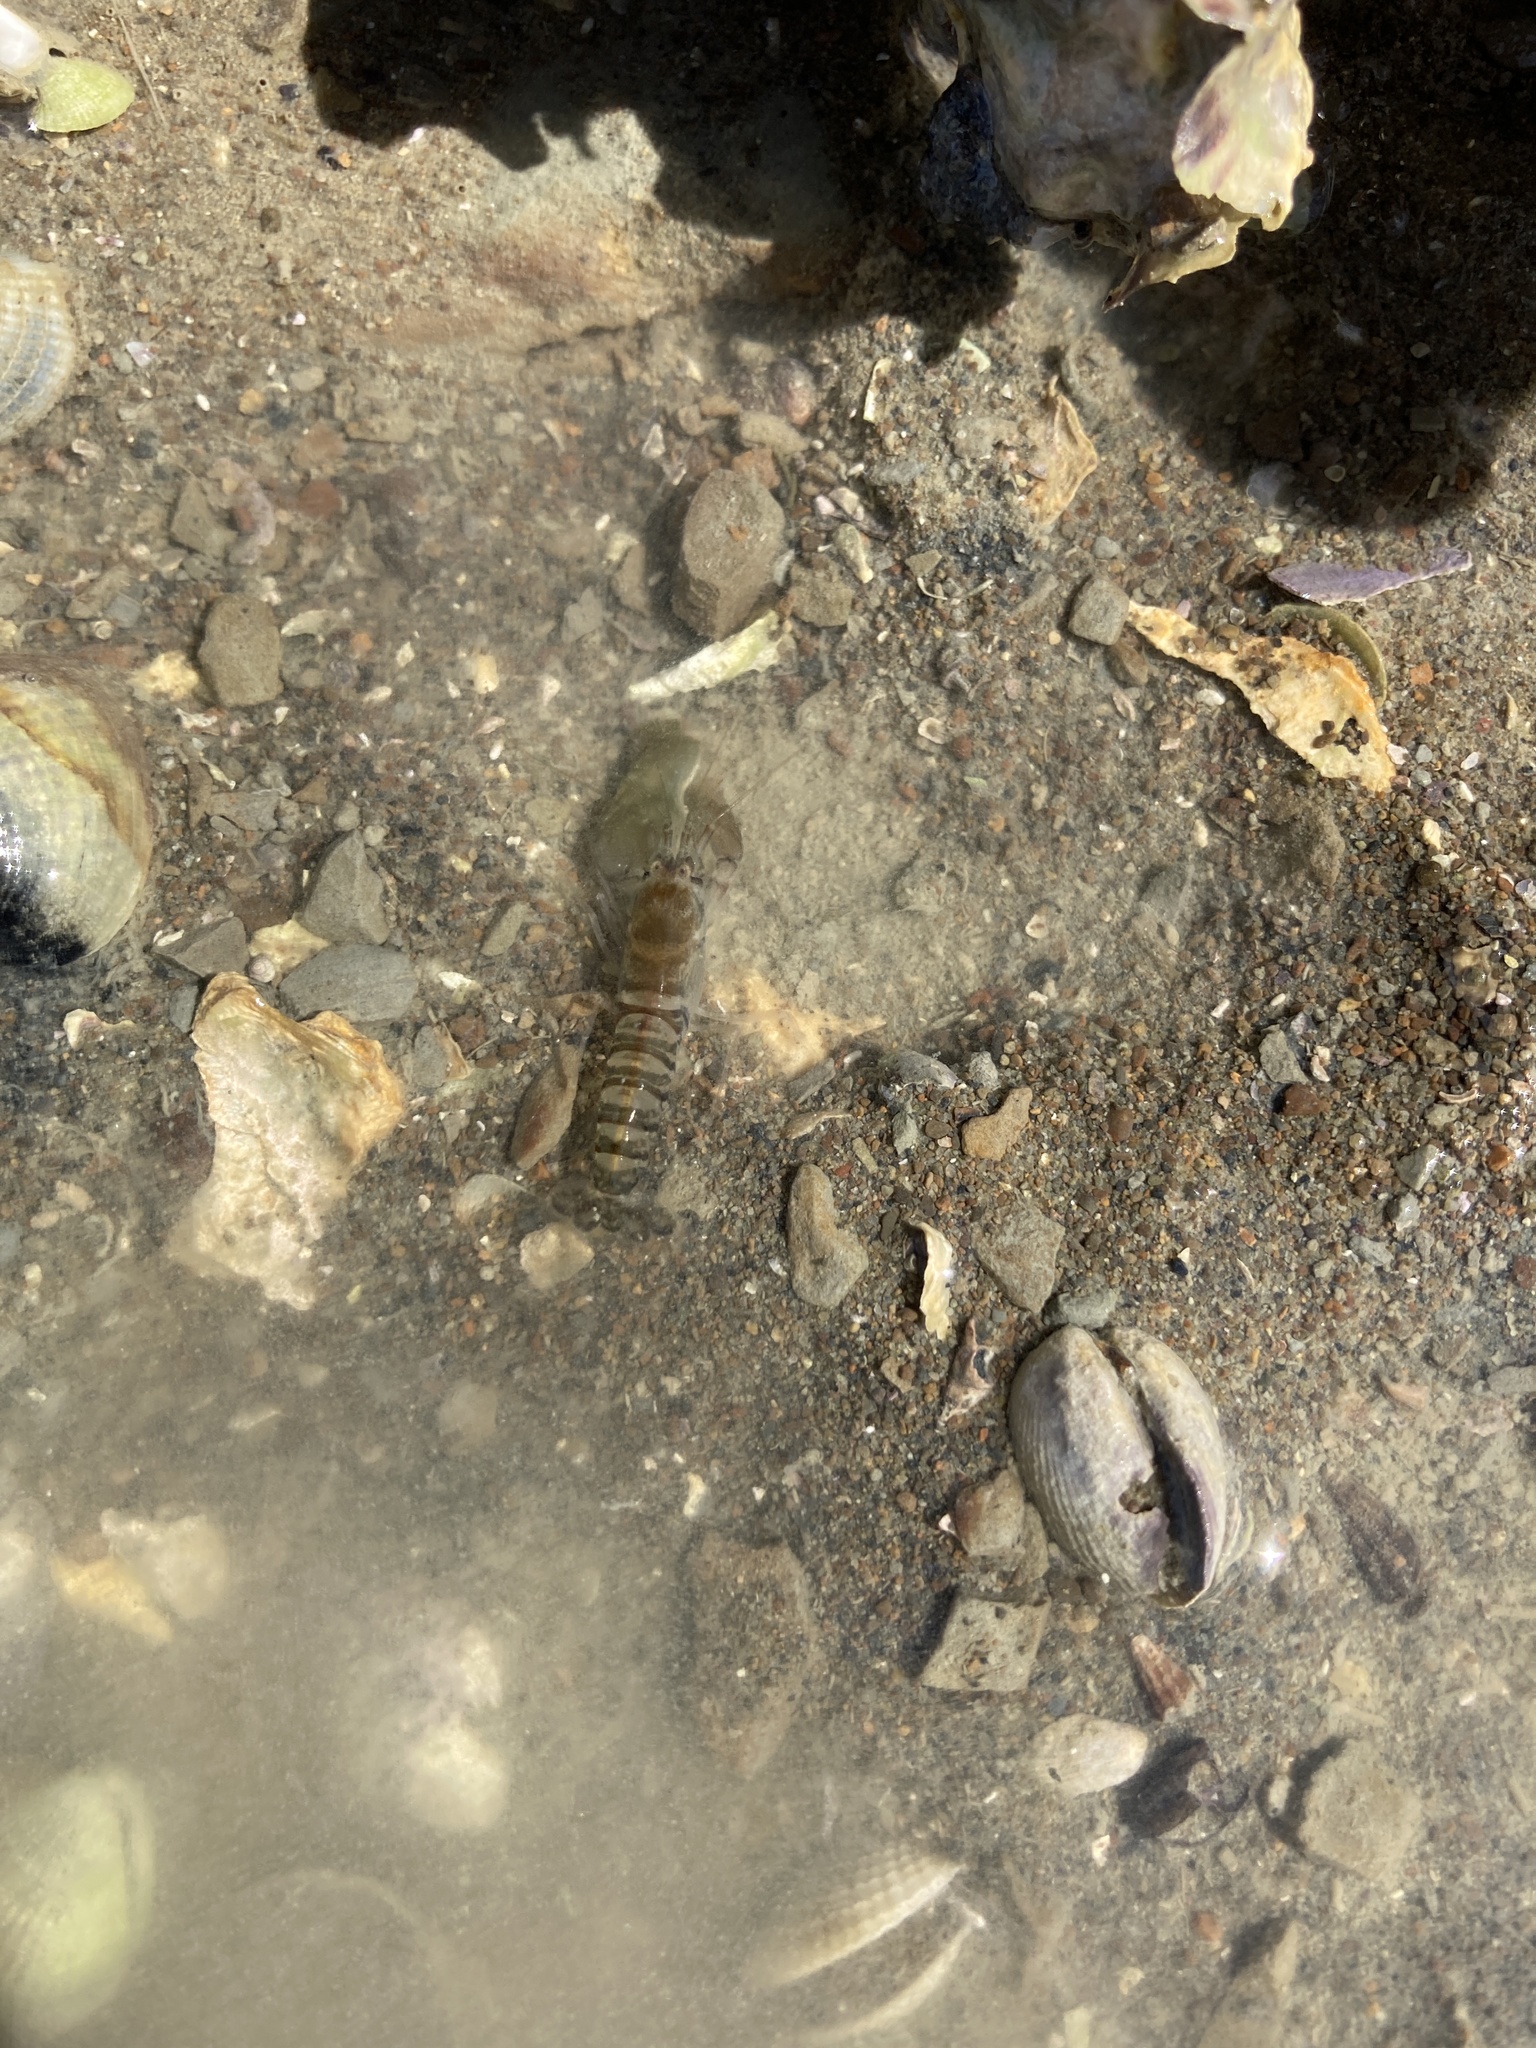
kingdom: Animalia
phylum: Arthropoda
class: Malacostraca
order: Decapoda
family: Alpheidae
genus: Alpheus
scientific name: Alpheus richardsoni
